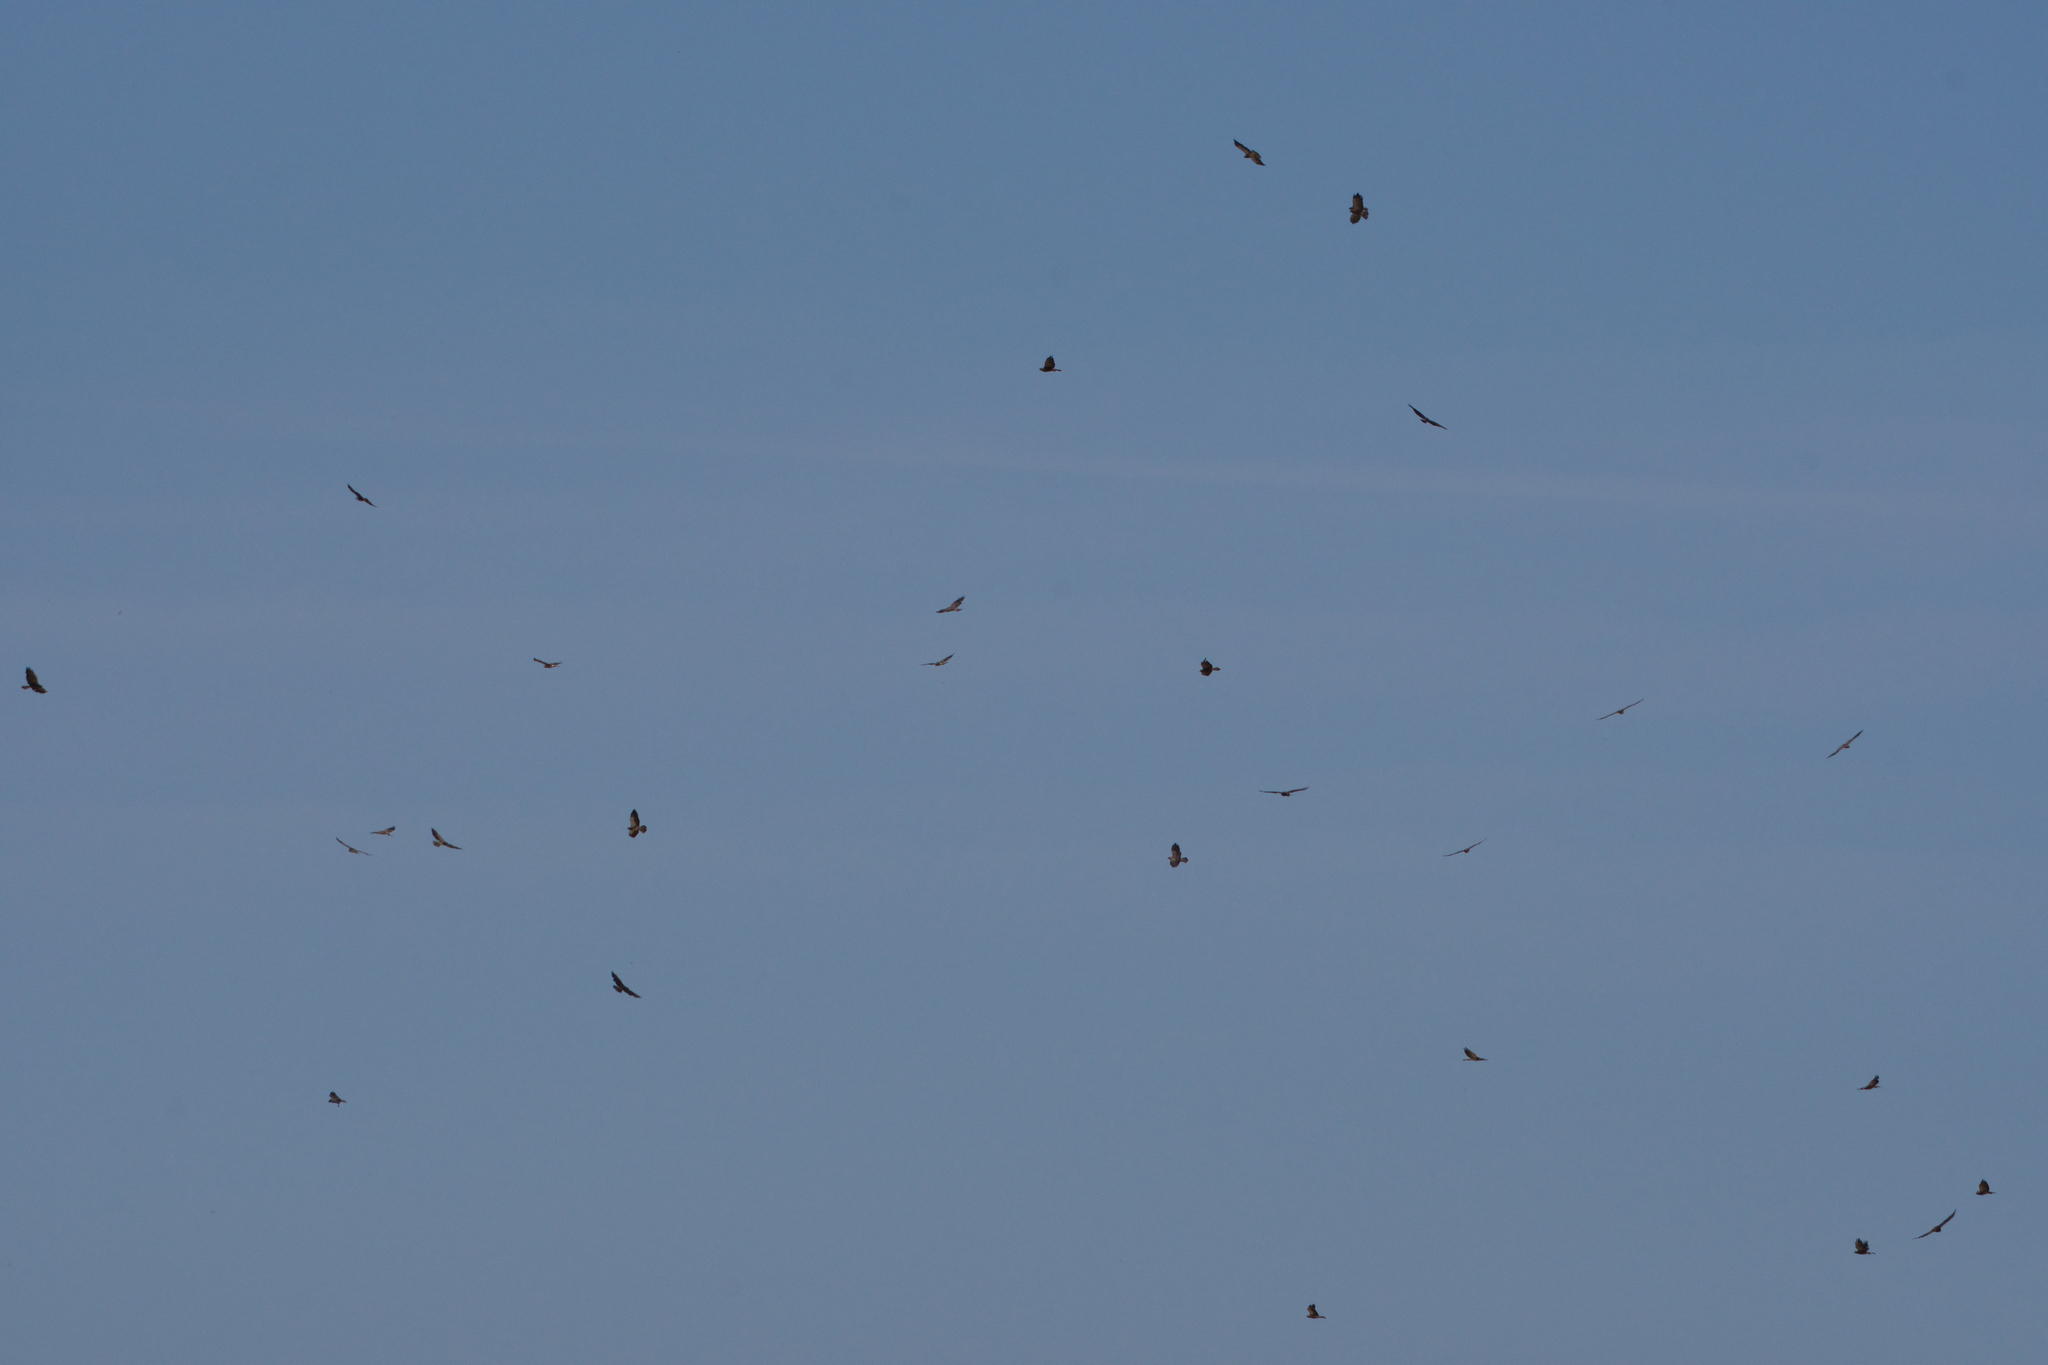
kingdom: Animalia
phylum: Chordata
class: Aves
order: Accipitriformes
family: Accipitridae
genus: Buteo
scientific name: Buteo swainsoni
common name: Swainson's hawk
